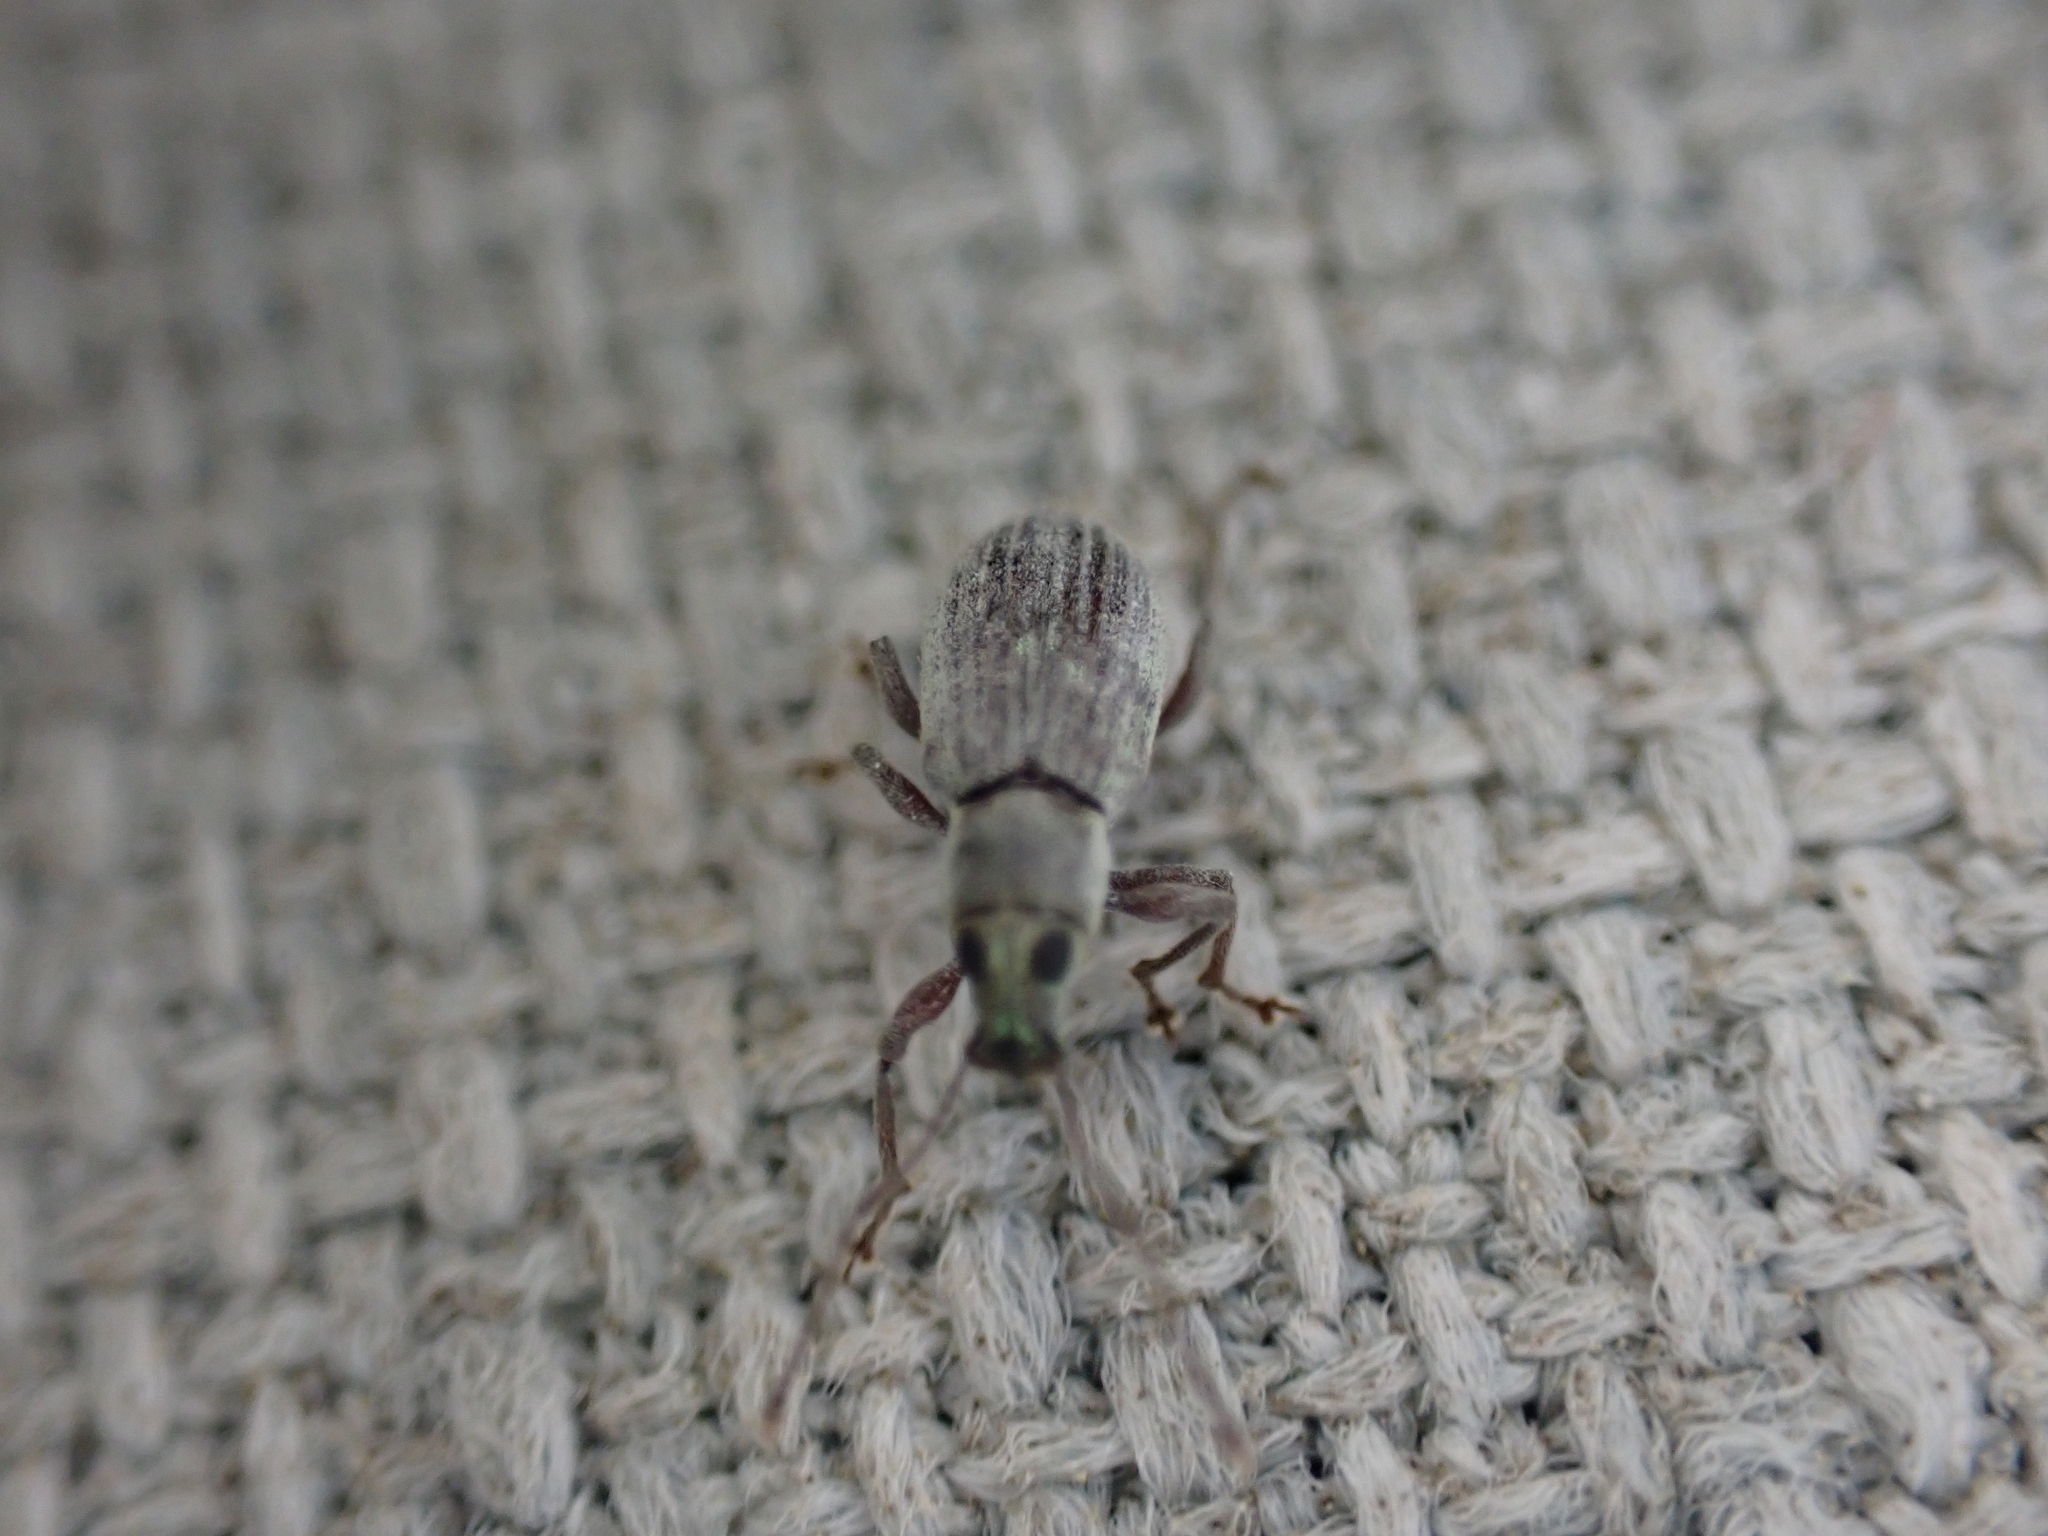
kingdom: Animalia
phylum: Arthropoda
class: Insecta
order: Coleoptera
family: Curculionidae
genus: Cyrtepistomus
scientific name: Cyrtepistomus castaneus
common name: Weevil
